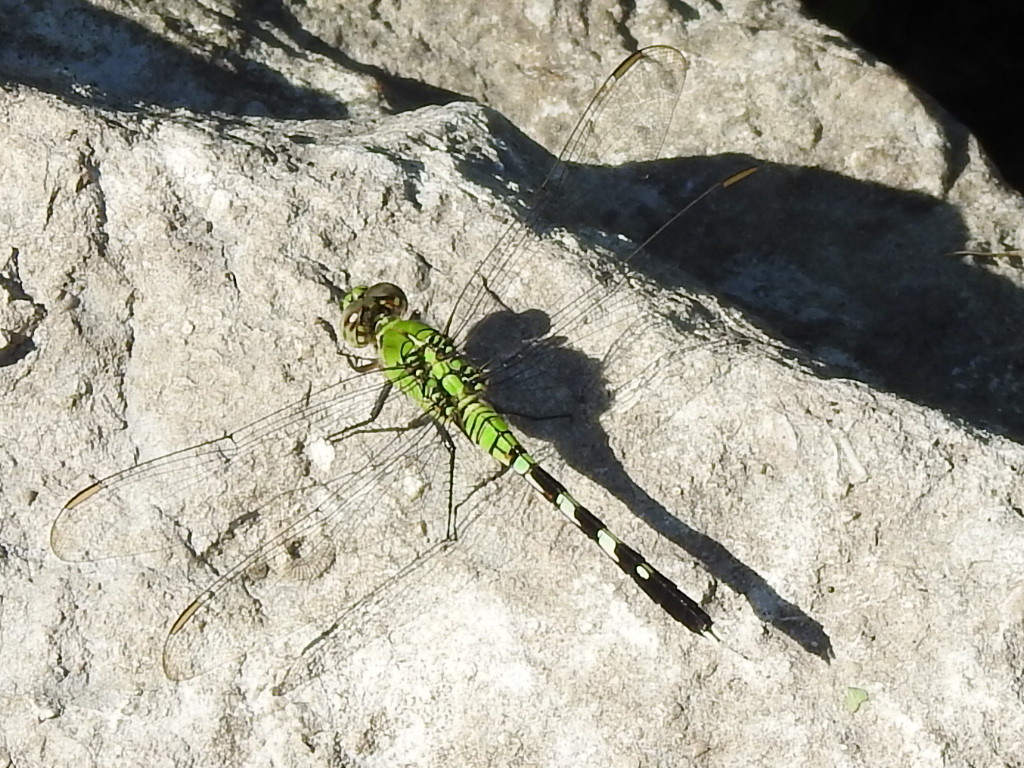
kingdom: Animalia
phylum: Arthropoda
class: Insecta
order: Odonata
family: Libellulidae
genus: Erythemis
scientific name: Erythemis simplicicollis
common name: Eastern pondhawk
